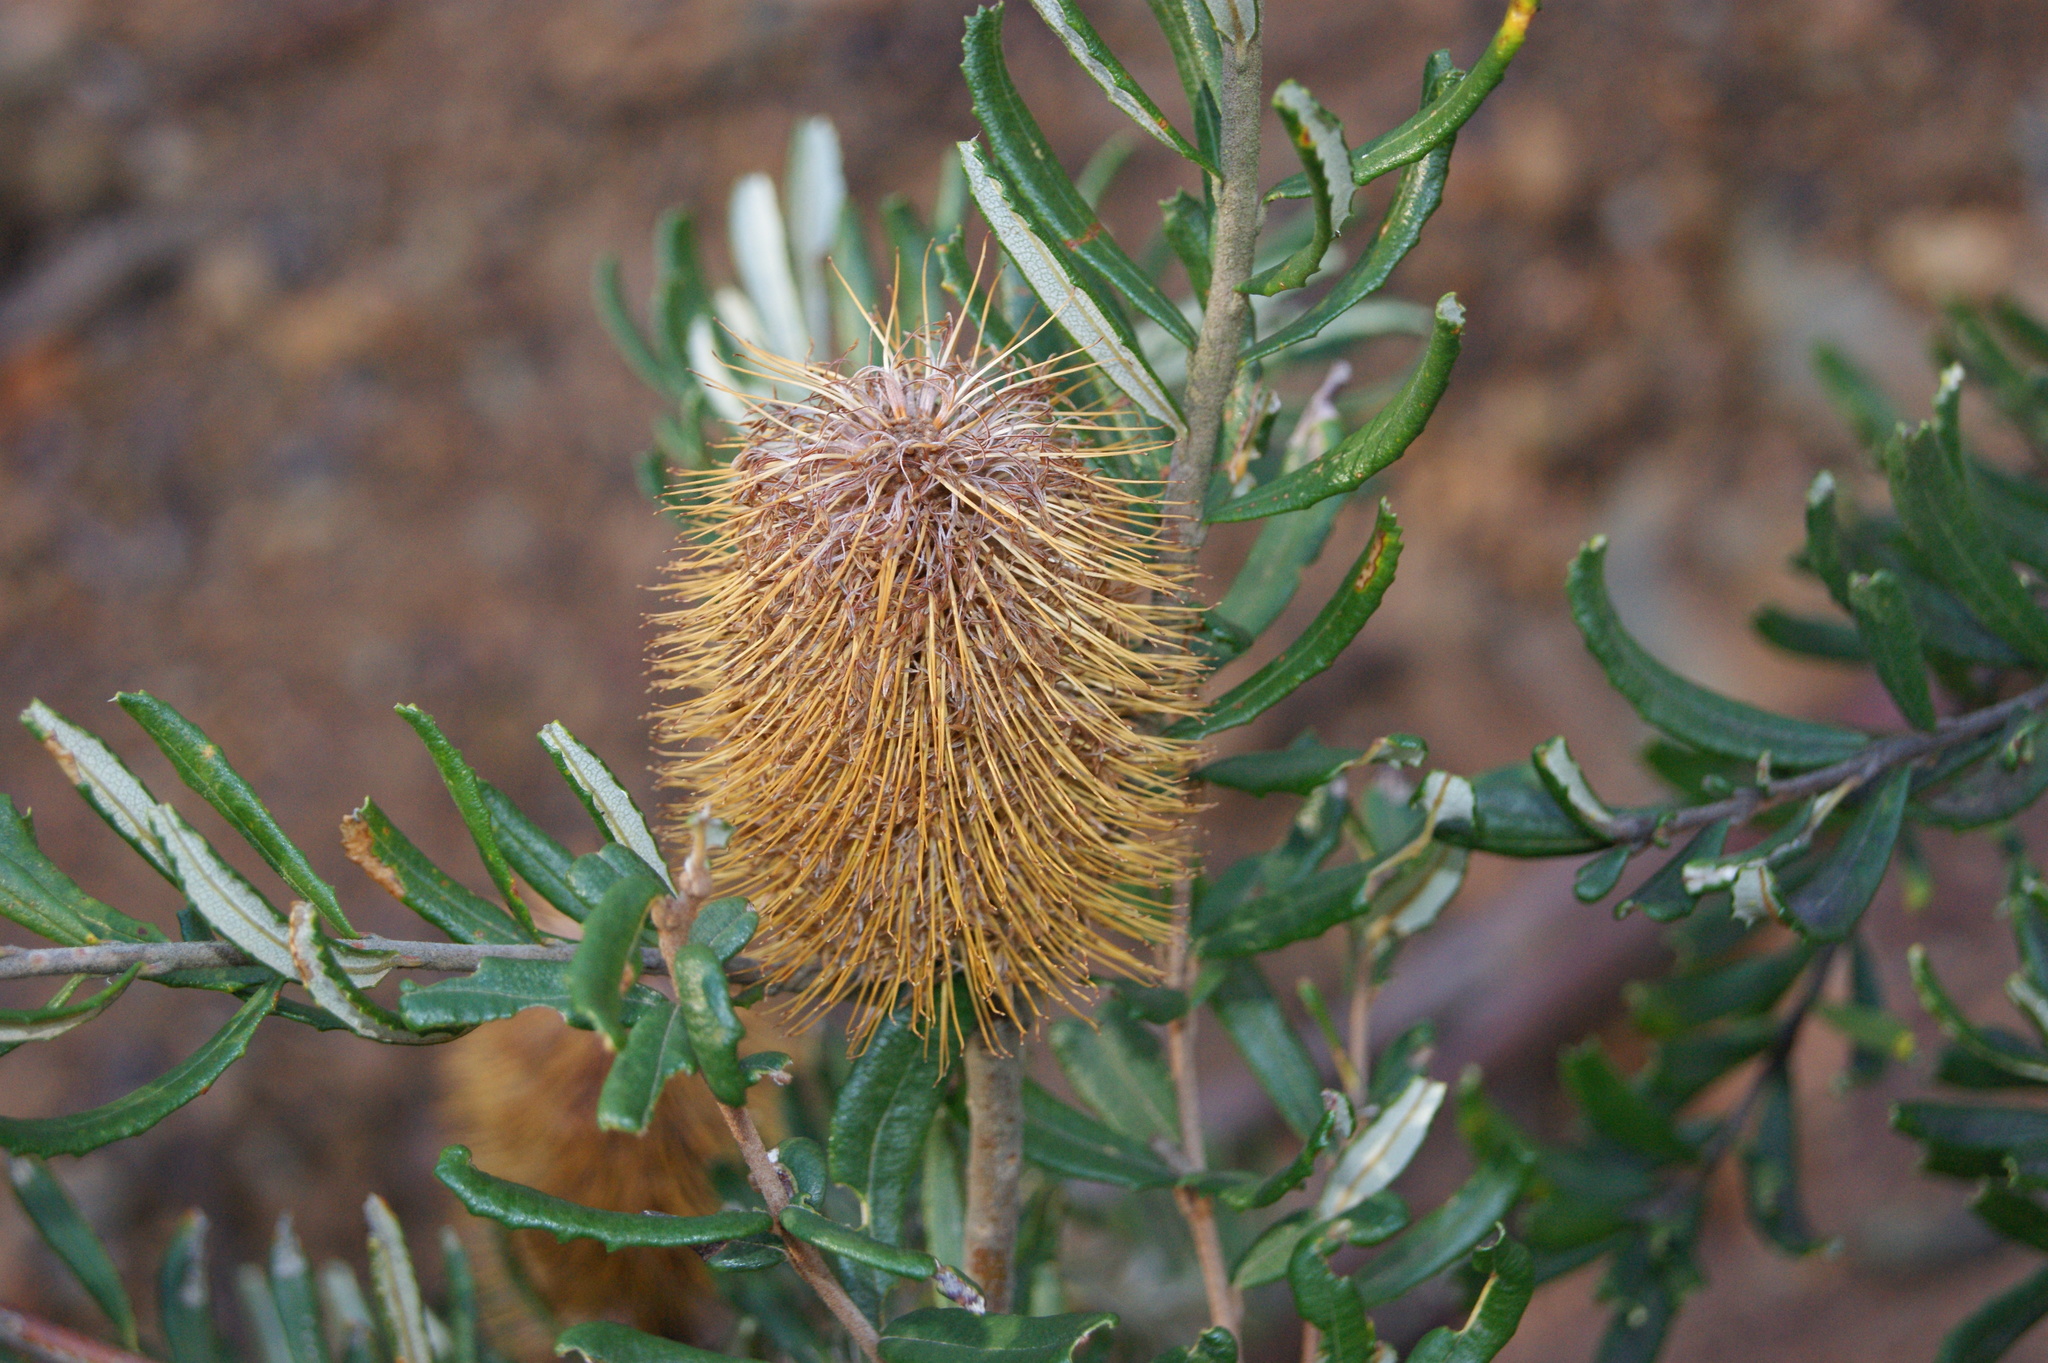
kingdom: Plantae
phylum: Tracheophyta
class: Magnoliopsida
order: Proteales
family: Proteaceae
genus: Banksia
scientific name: Banksia marginata
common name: Silver banksia
